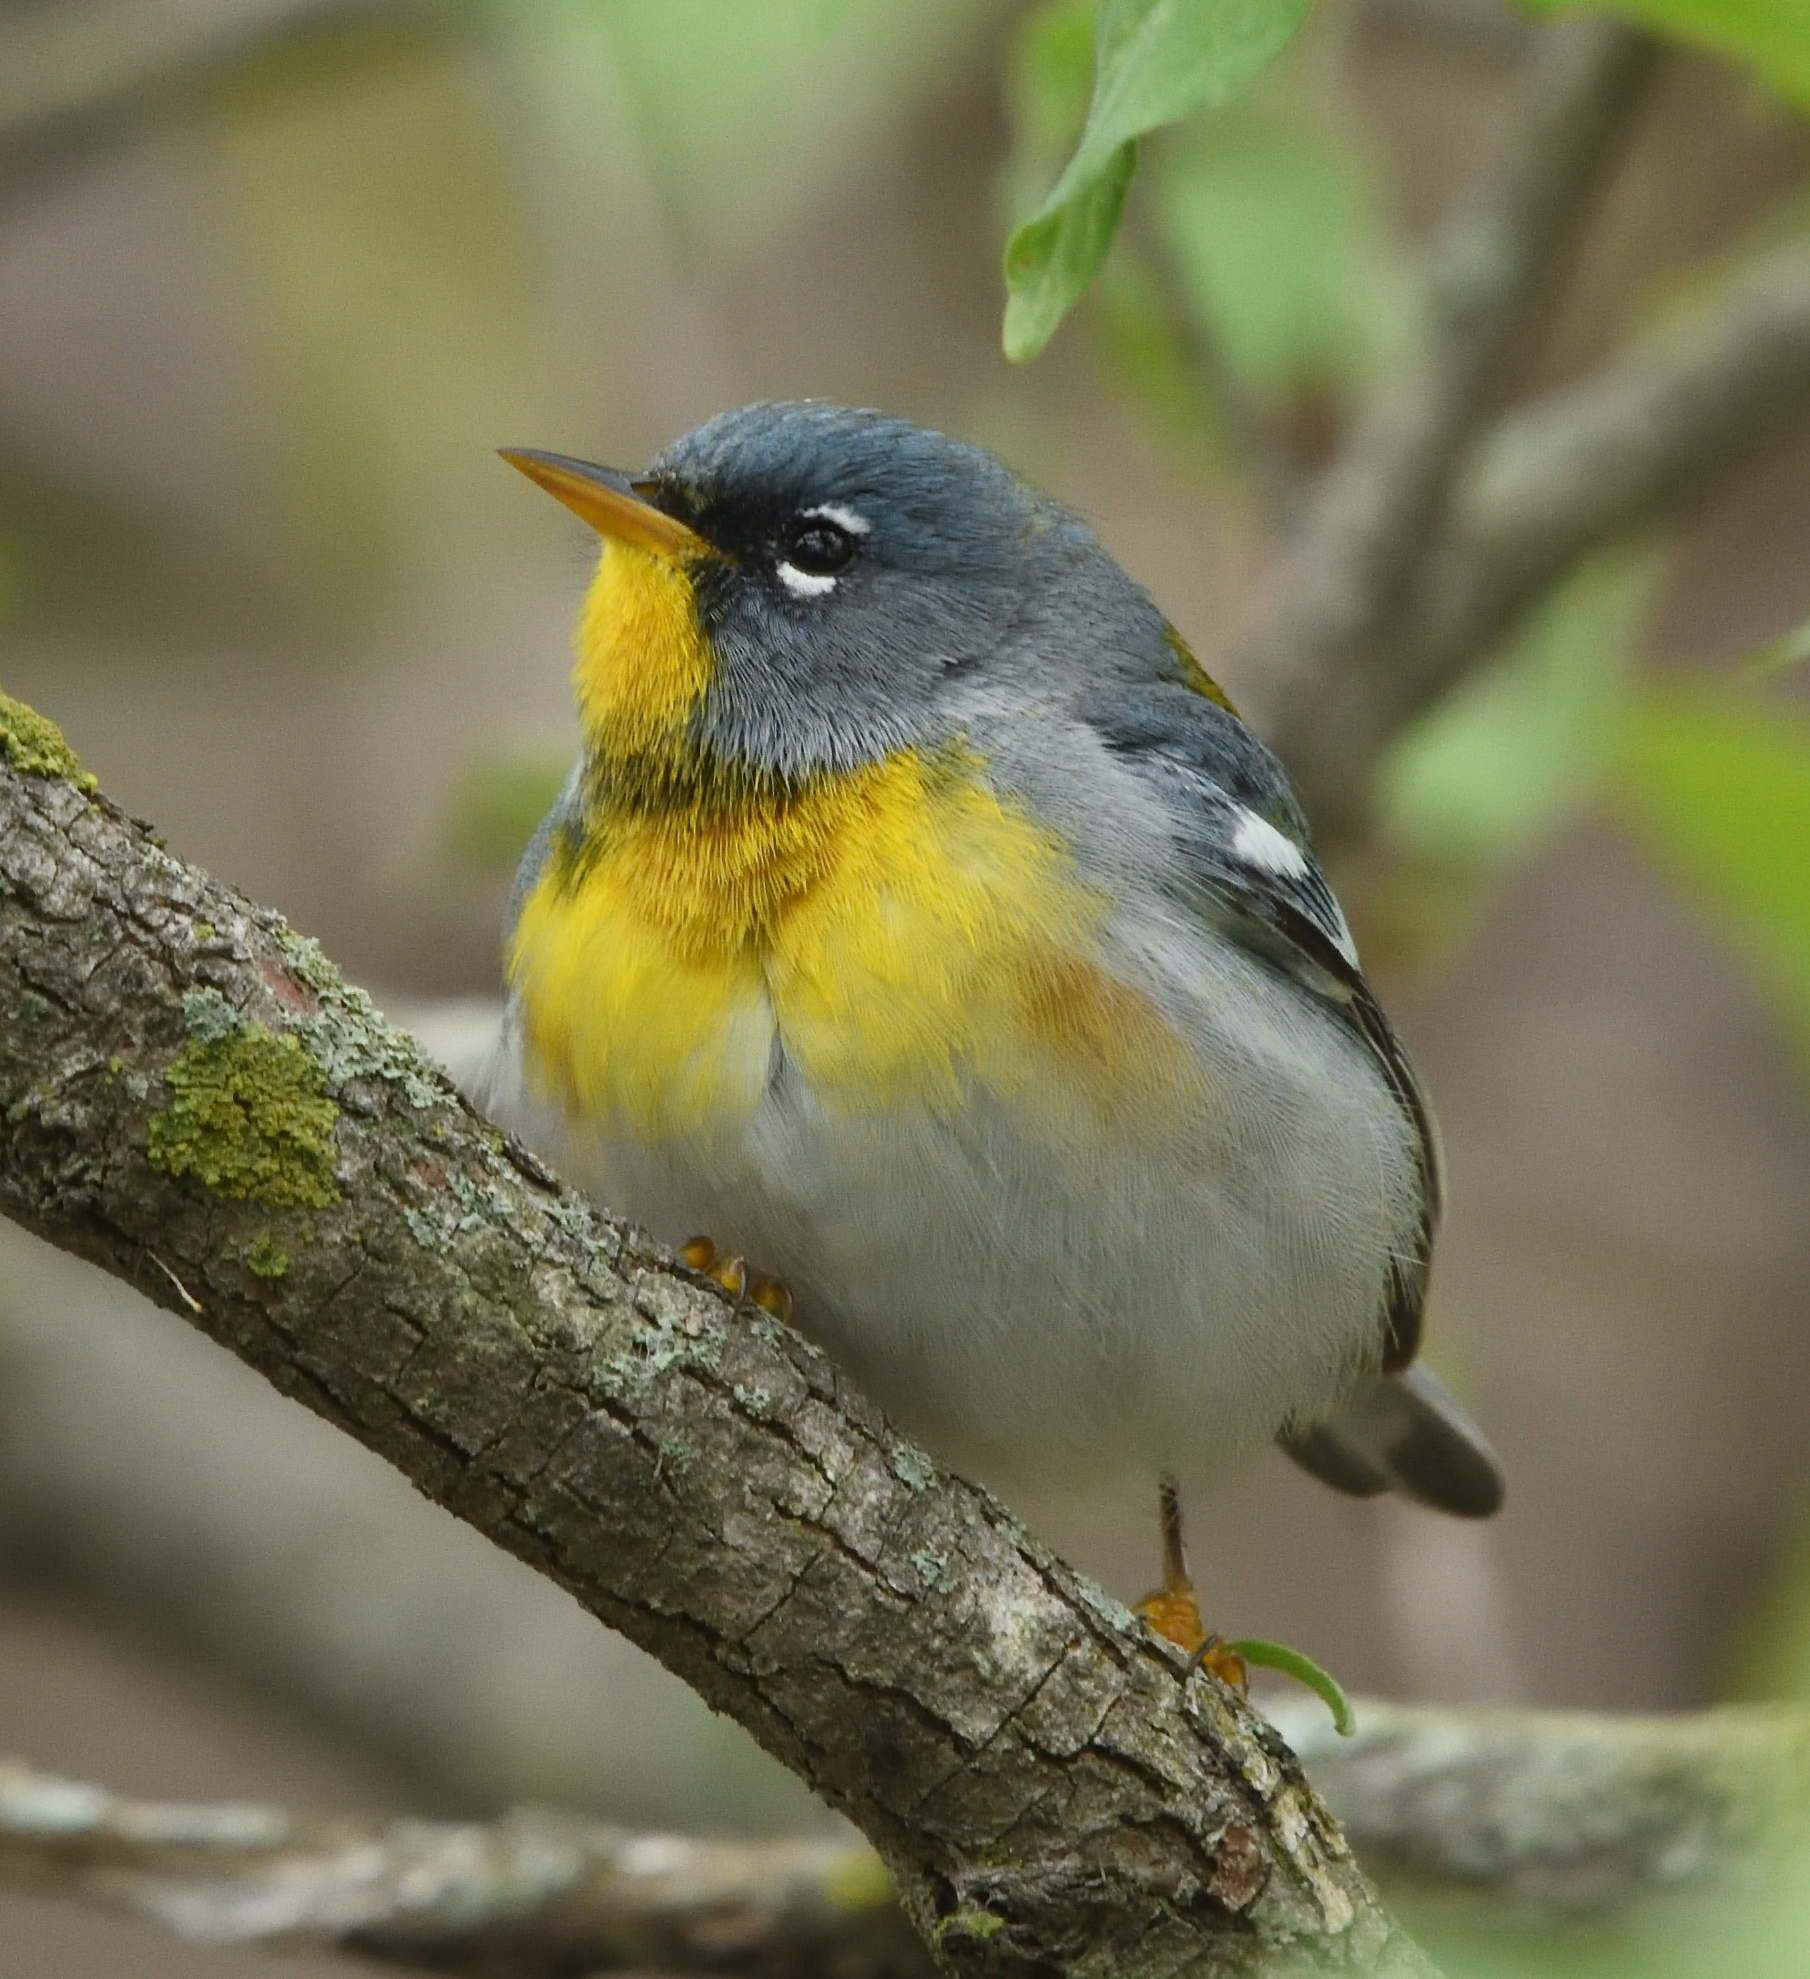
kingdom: Animalia
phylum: Chordata
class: Aves
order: Passeriformes
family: Parulidae
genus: Setophaga
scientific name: Setophaga americana
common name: Northern parula
